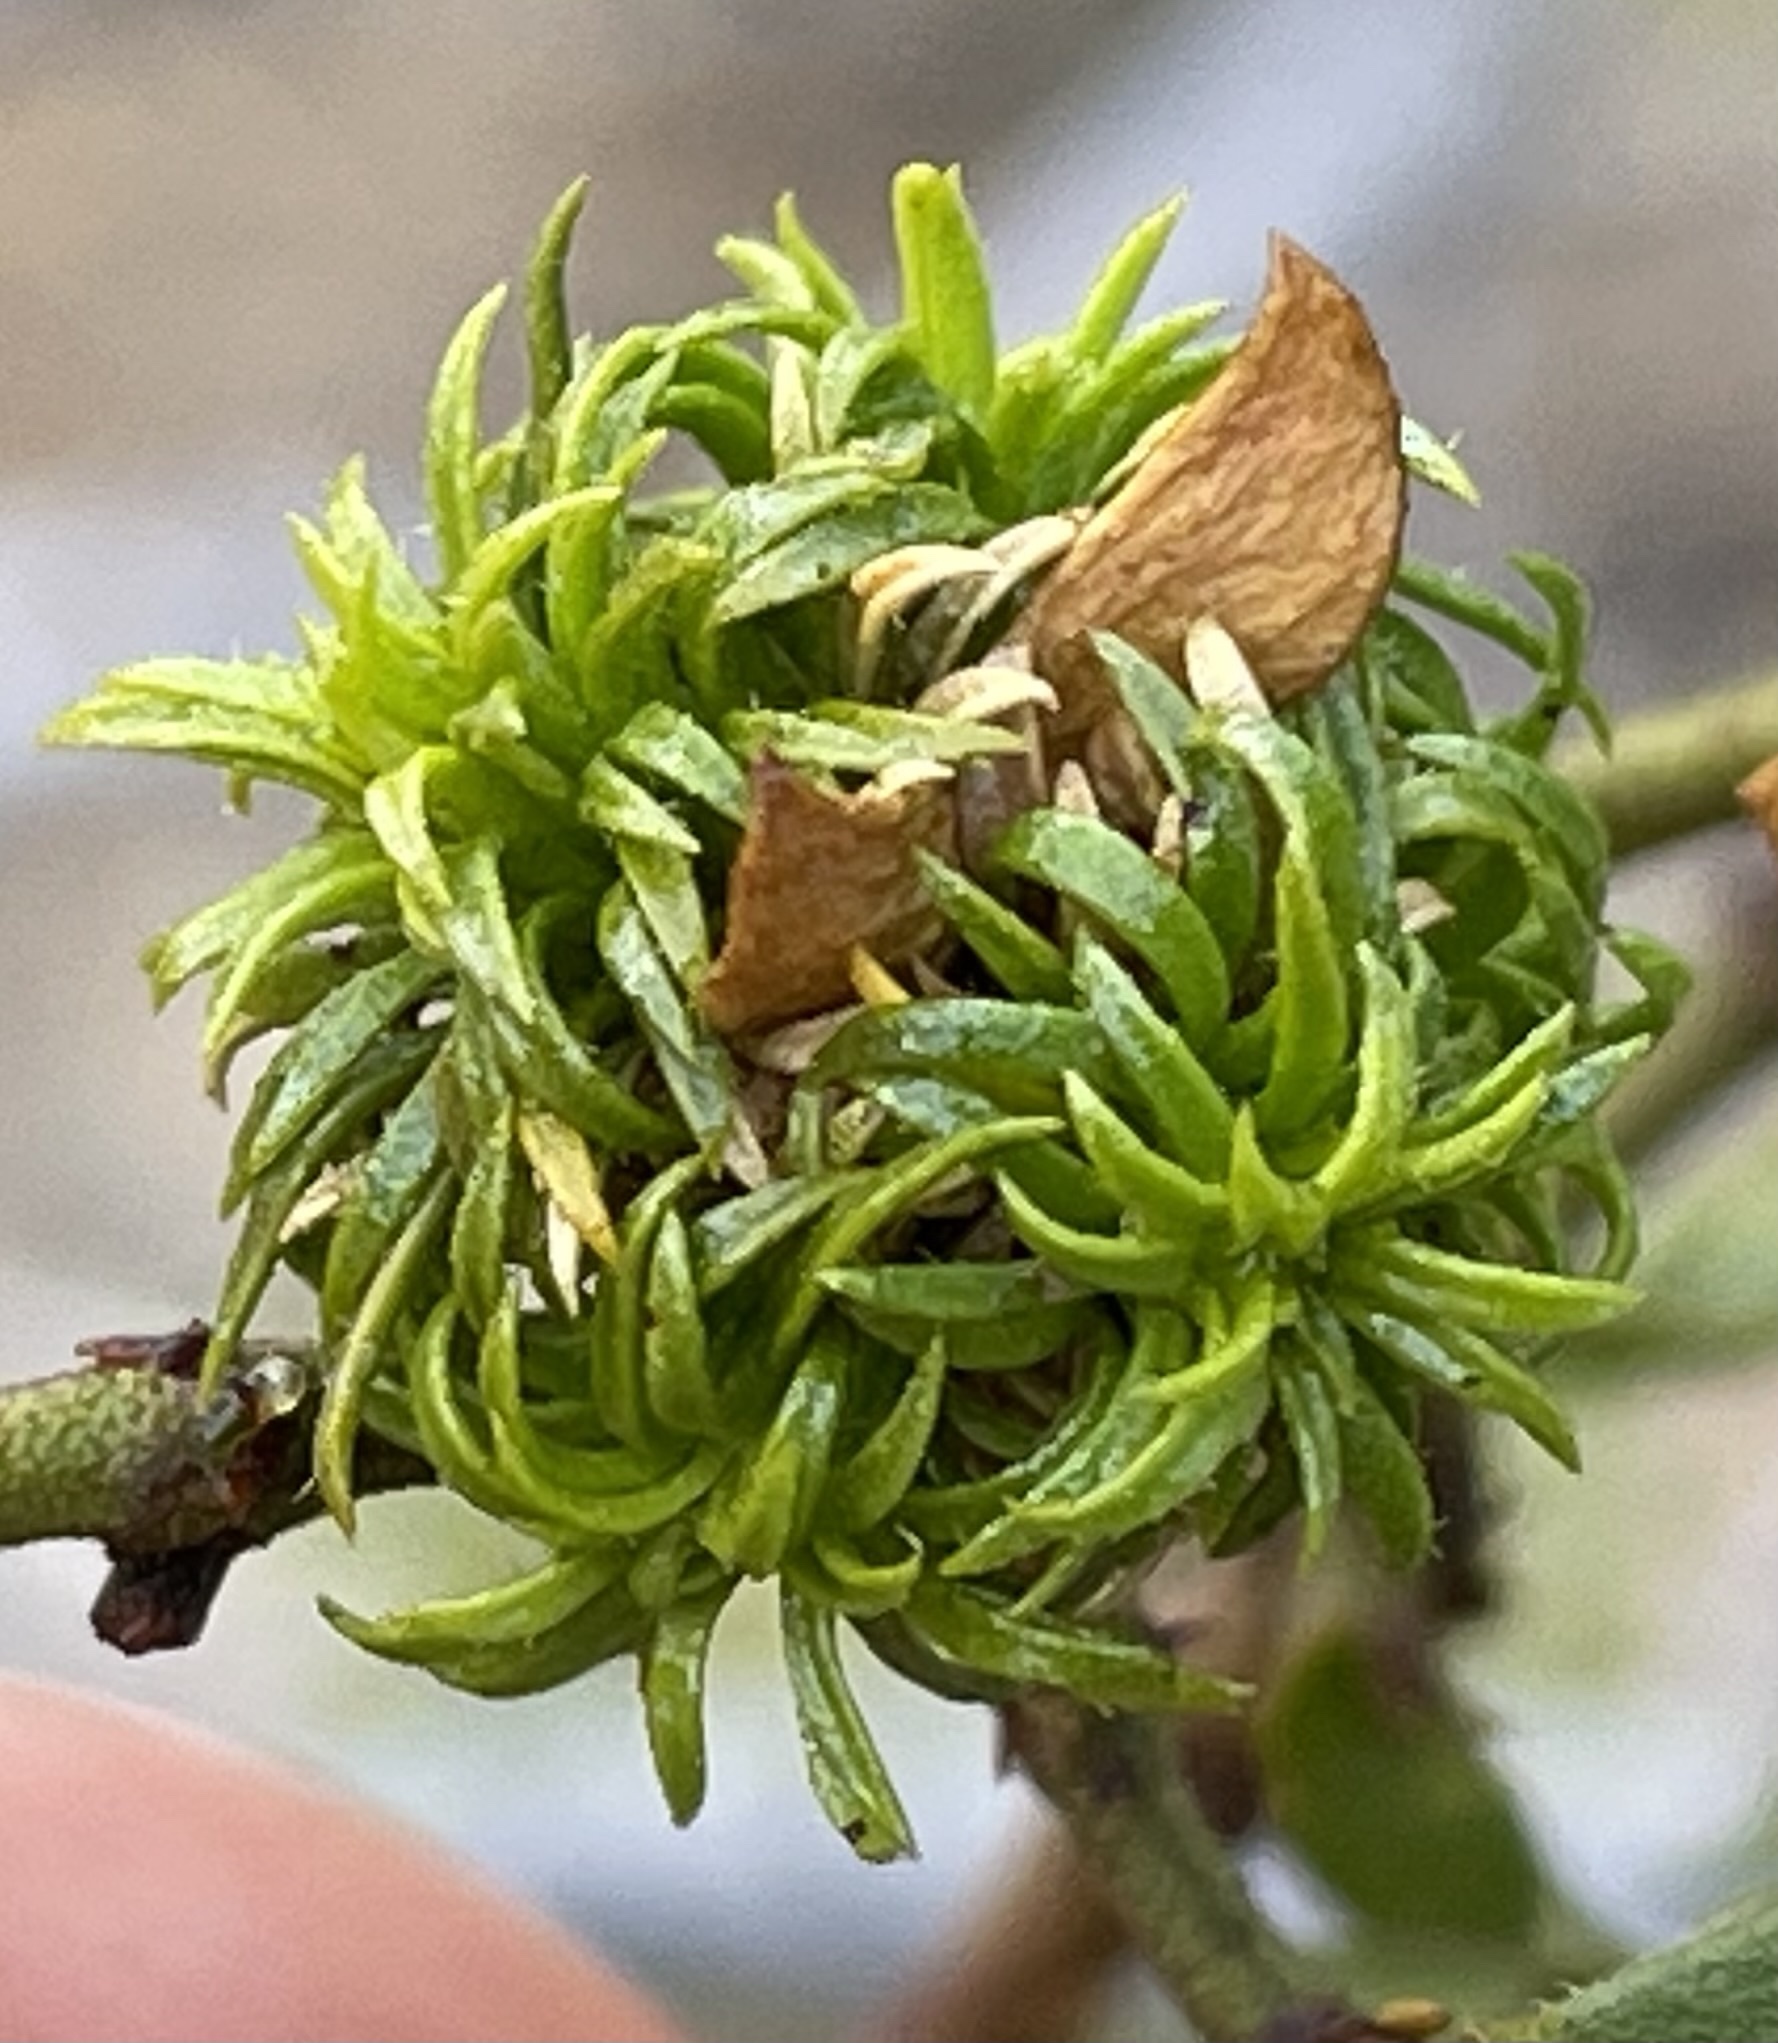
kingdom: Animalia
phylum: Arthropoda
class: Insecta
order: Diptera
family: Cecidomyiidae
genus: Asphondylia
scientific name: Asphondylia auripila
